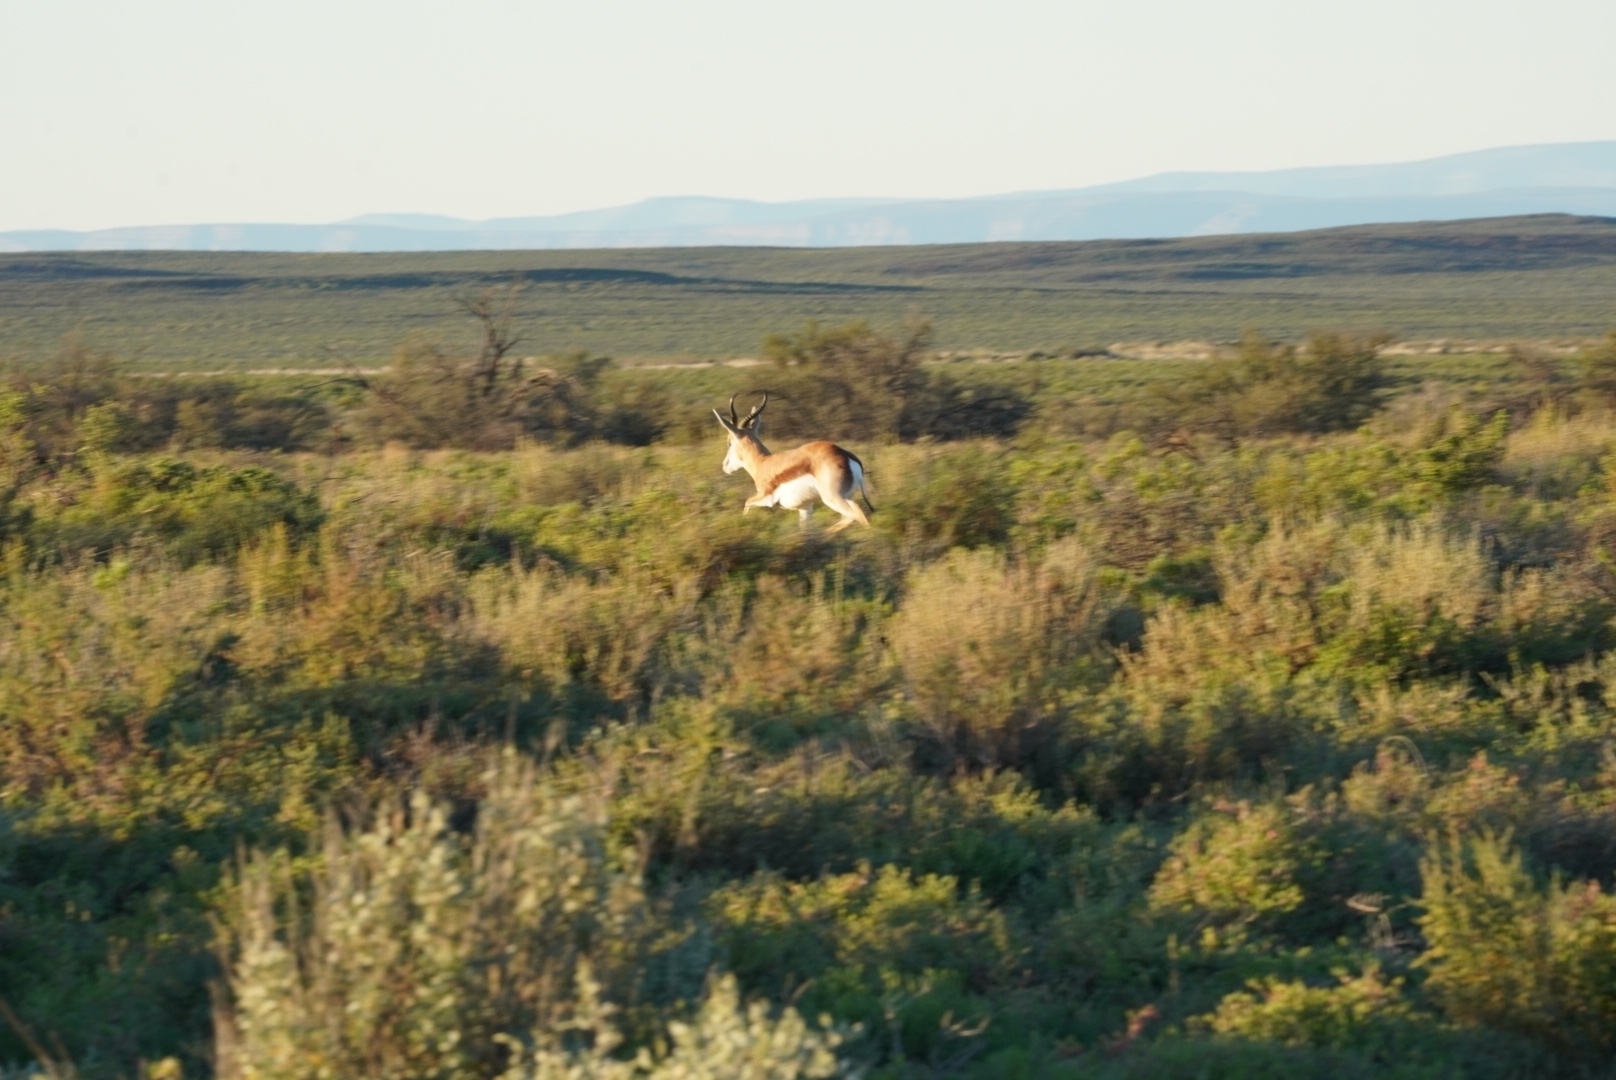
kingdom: Animalia
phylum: Chordata
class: Mammalia
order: Artiodactyla
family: Bovidae
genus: Antidorcas
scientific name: Antidorcas marsupialis
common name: Springbok
